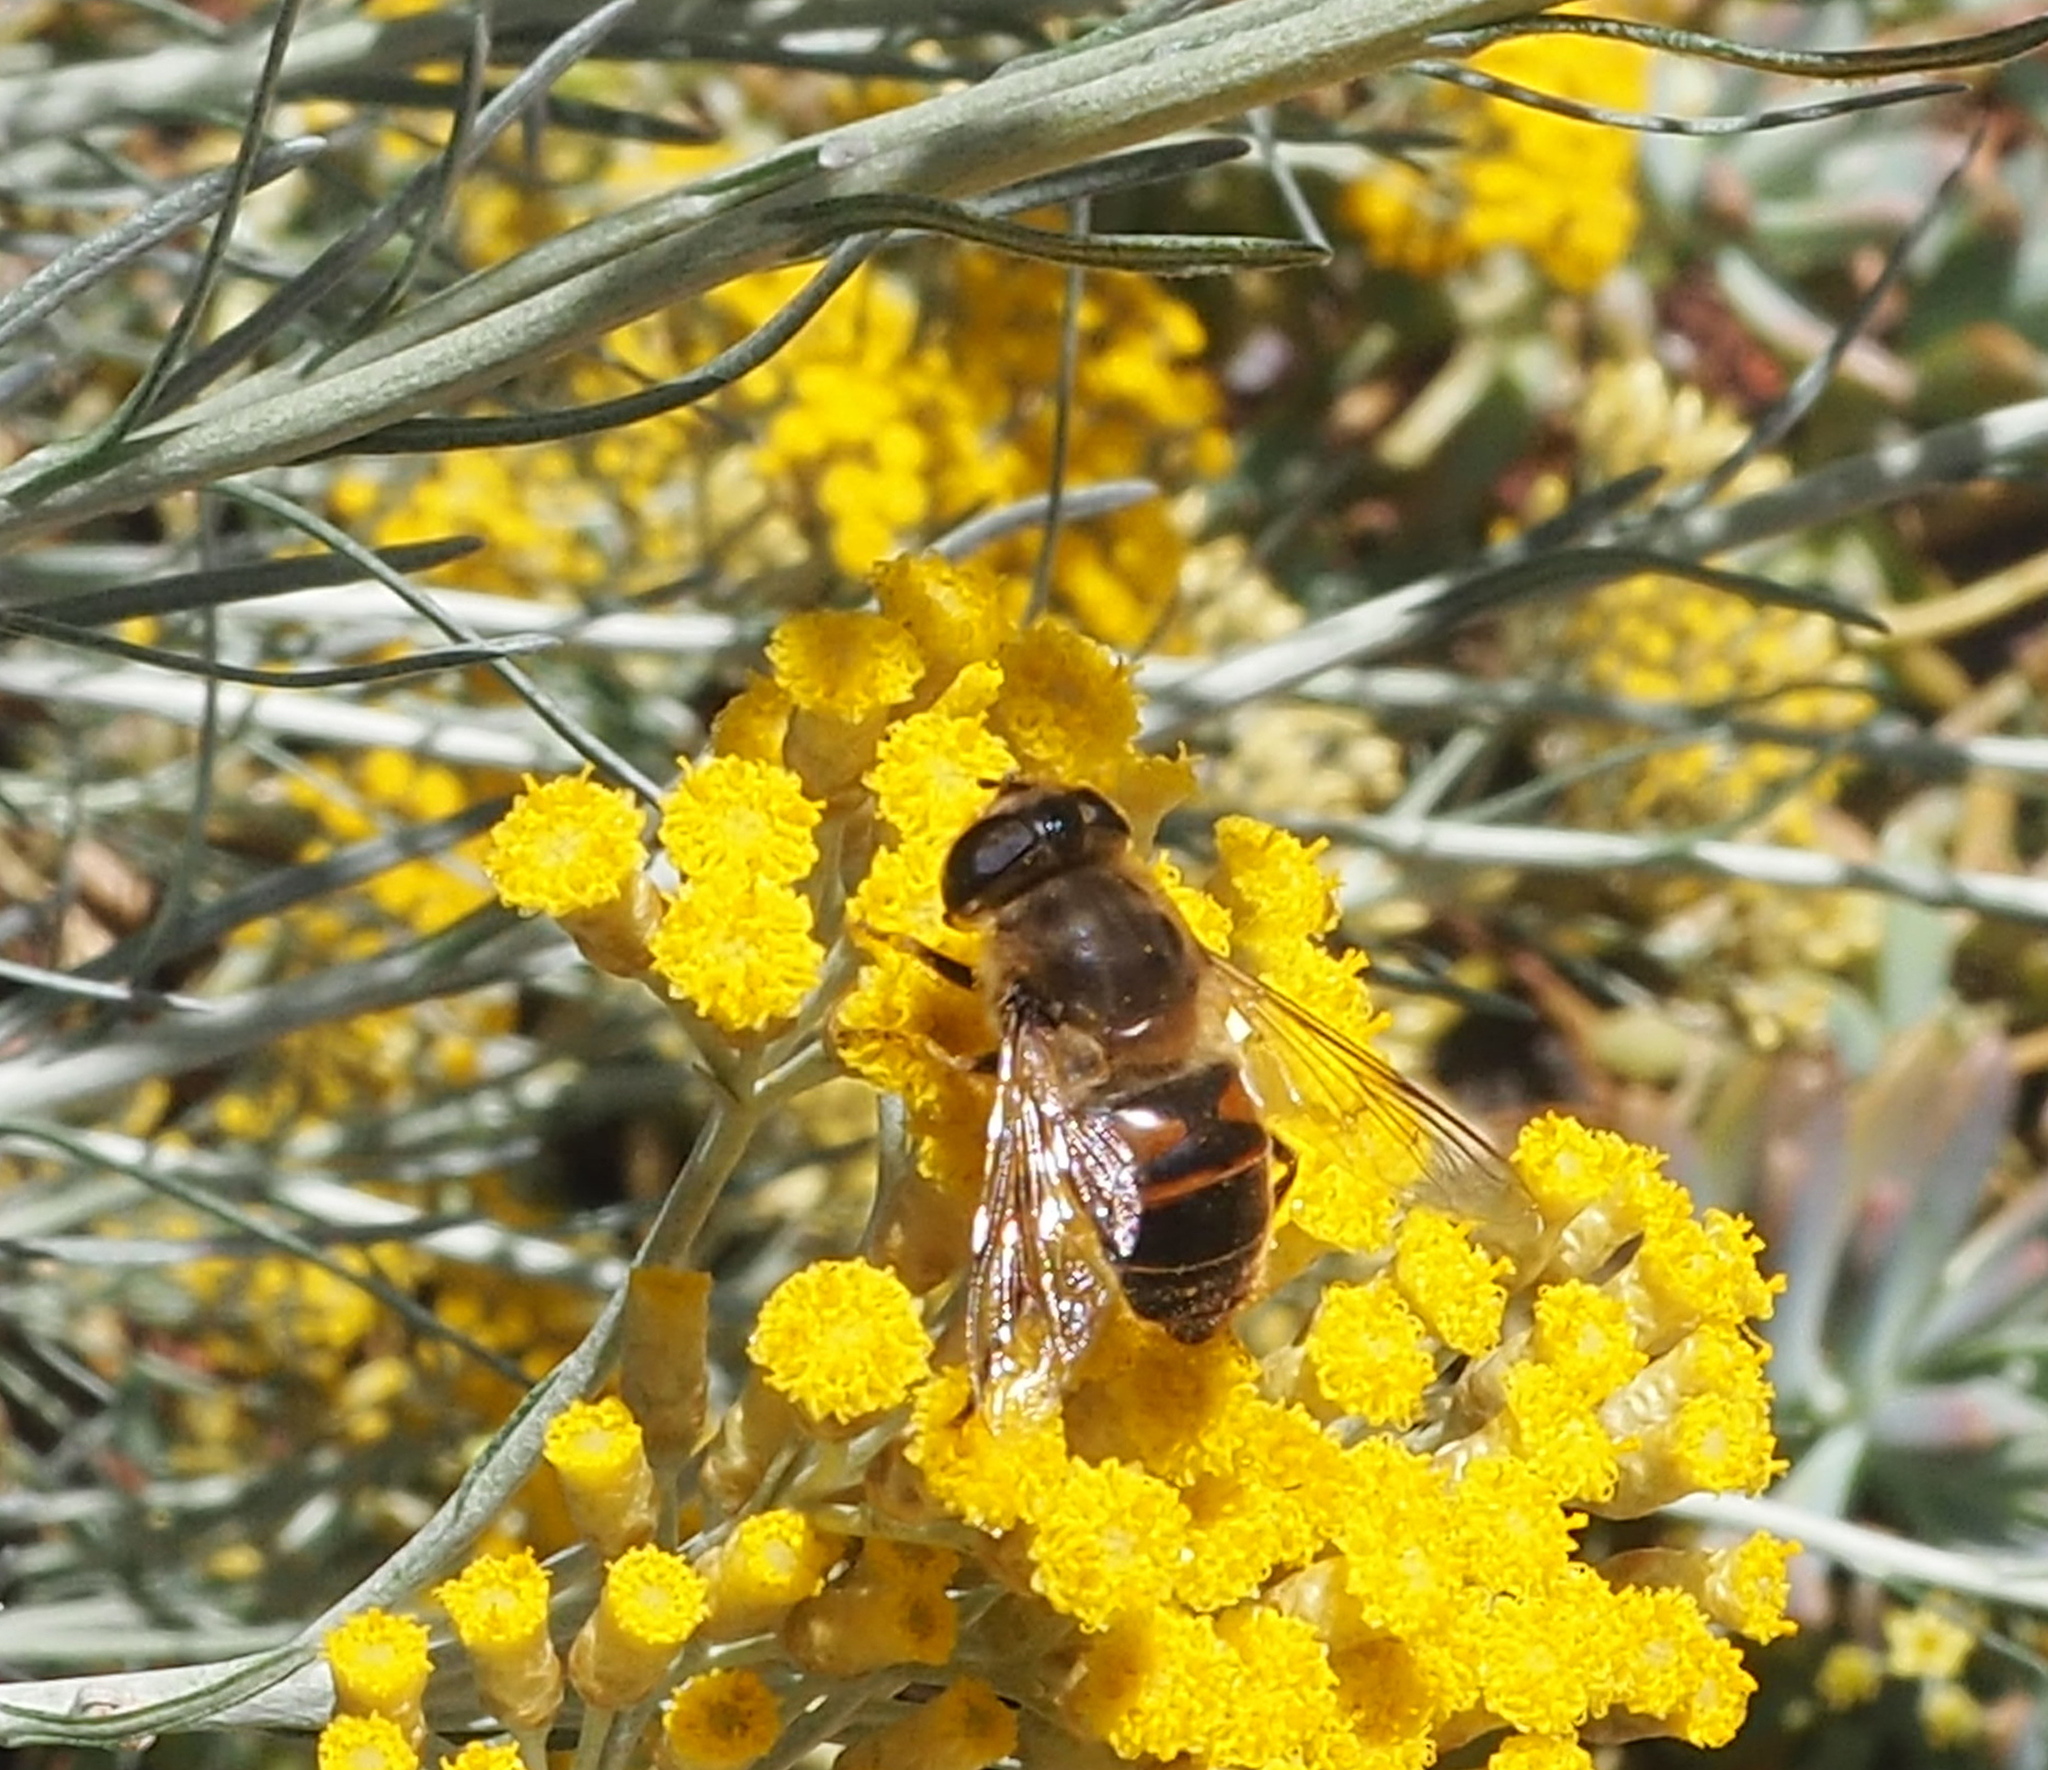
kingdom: Animalia
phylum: Arthropoda
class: Insecta
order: Diptera
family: Syrphidae
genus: Eristalis
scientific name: Eristalis tenax
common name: Drone fly
